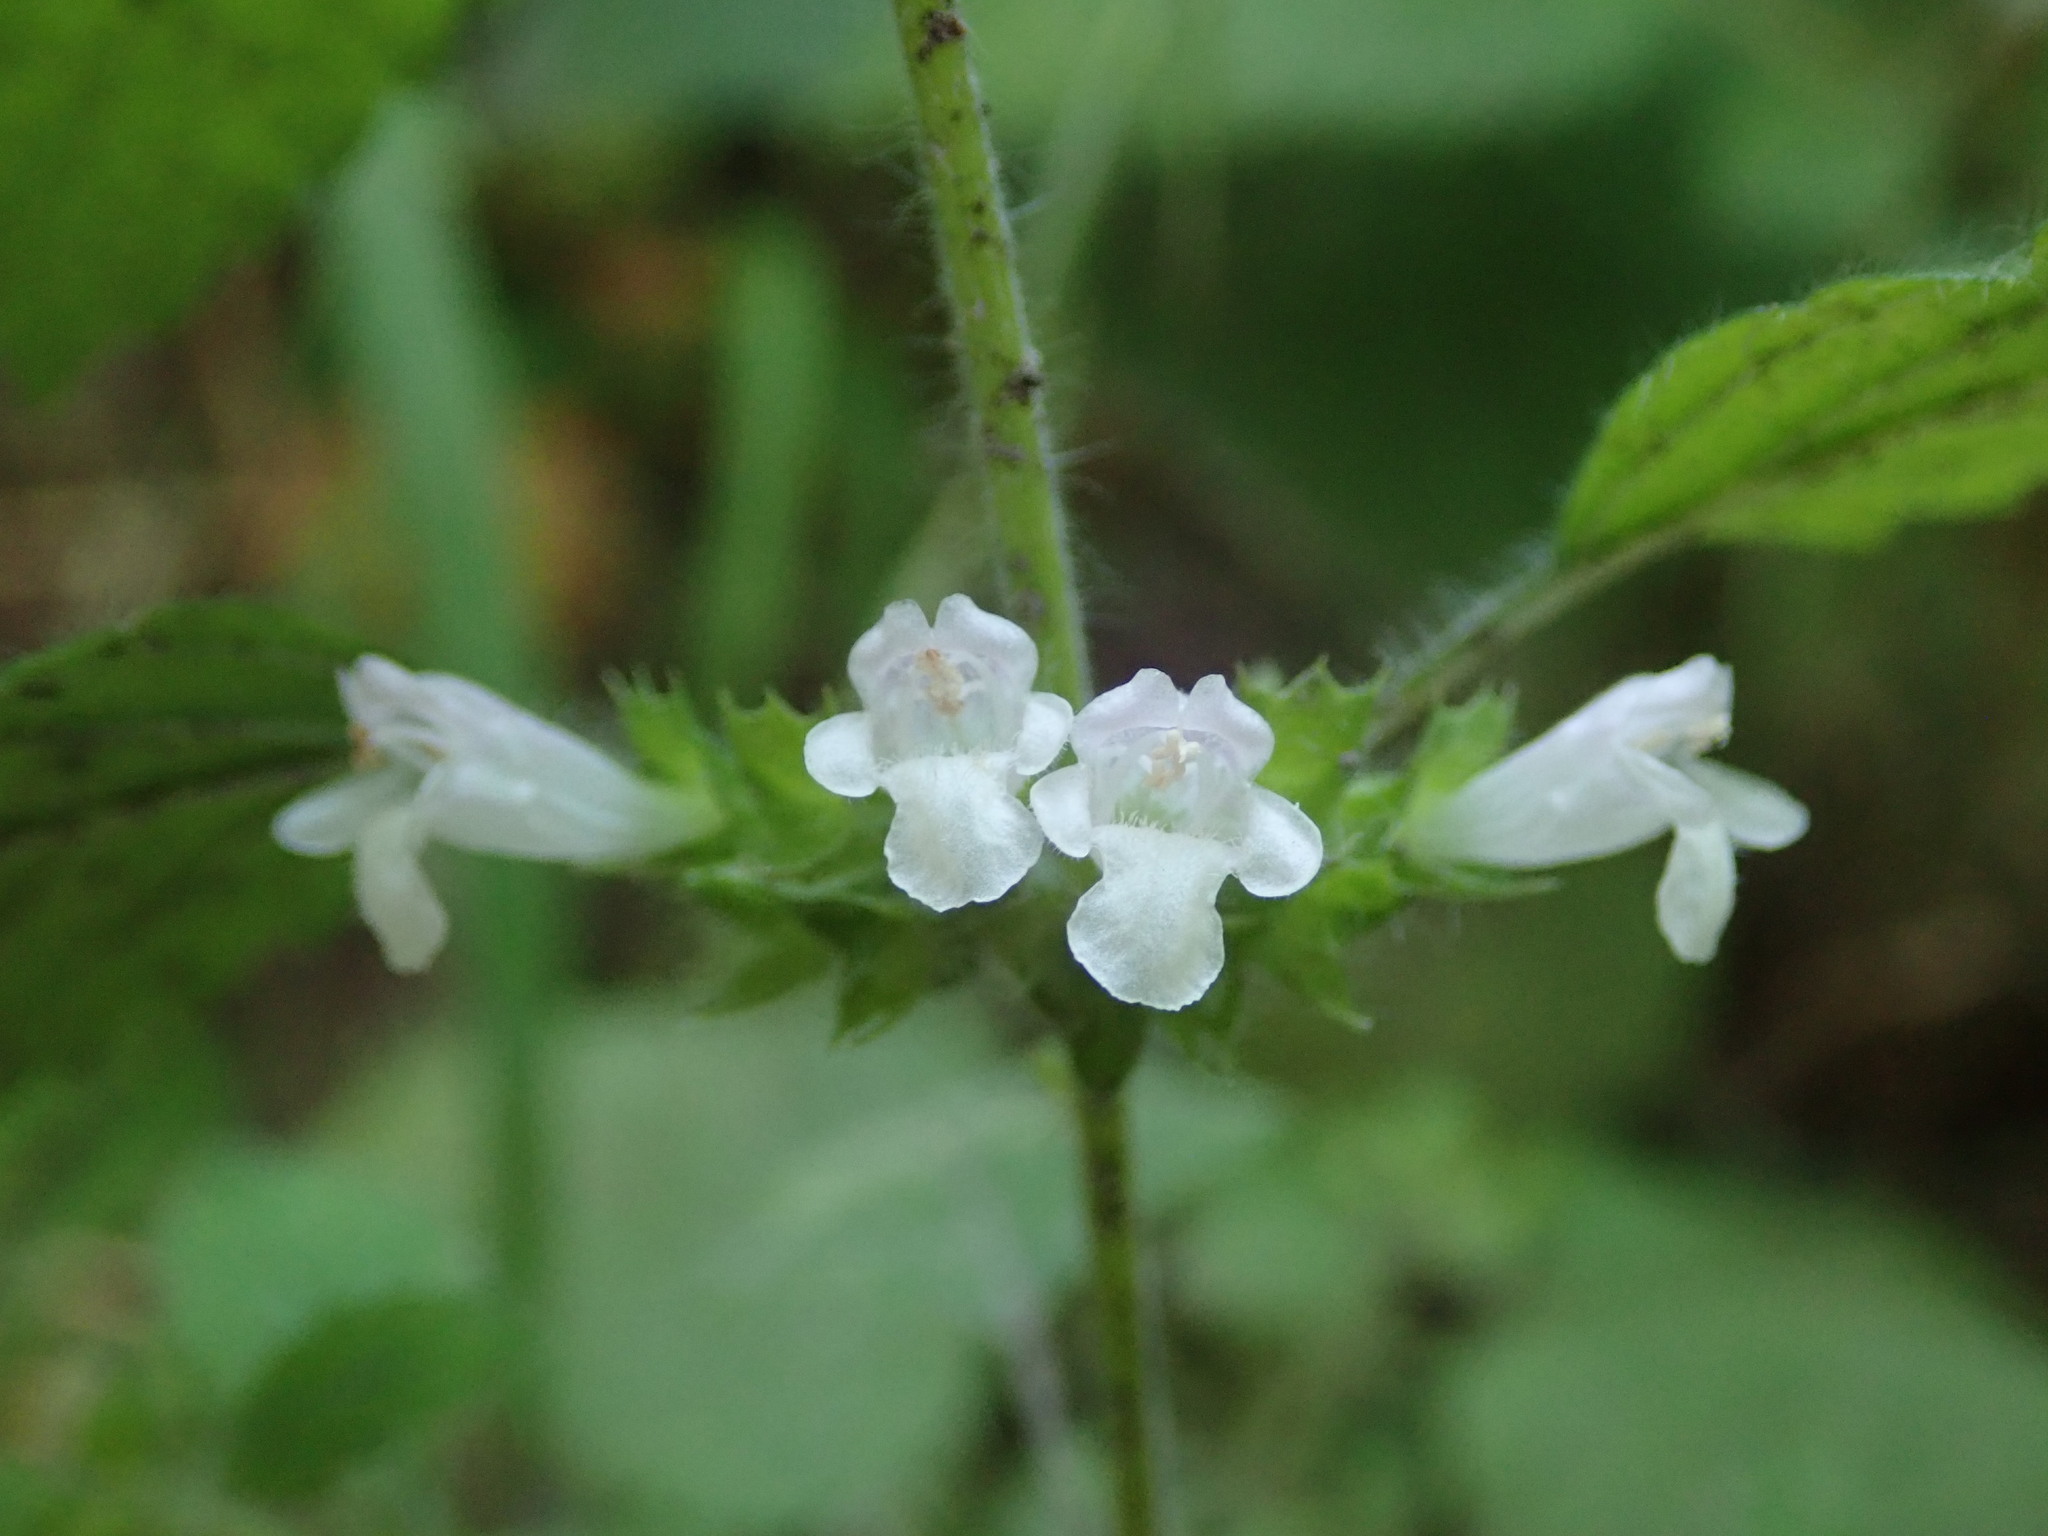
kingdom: Plantae
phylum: Tracheophyta
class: Magnoliopsida
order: Lamiales
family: Lamiaceae
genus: Melissa
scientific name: Melissa officinalis
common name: Balm
